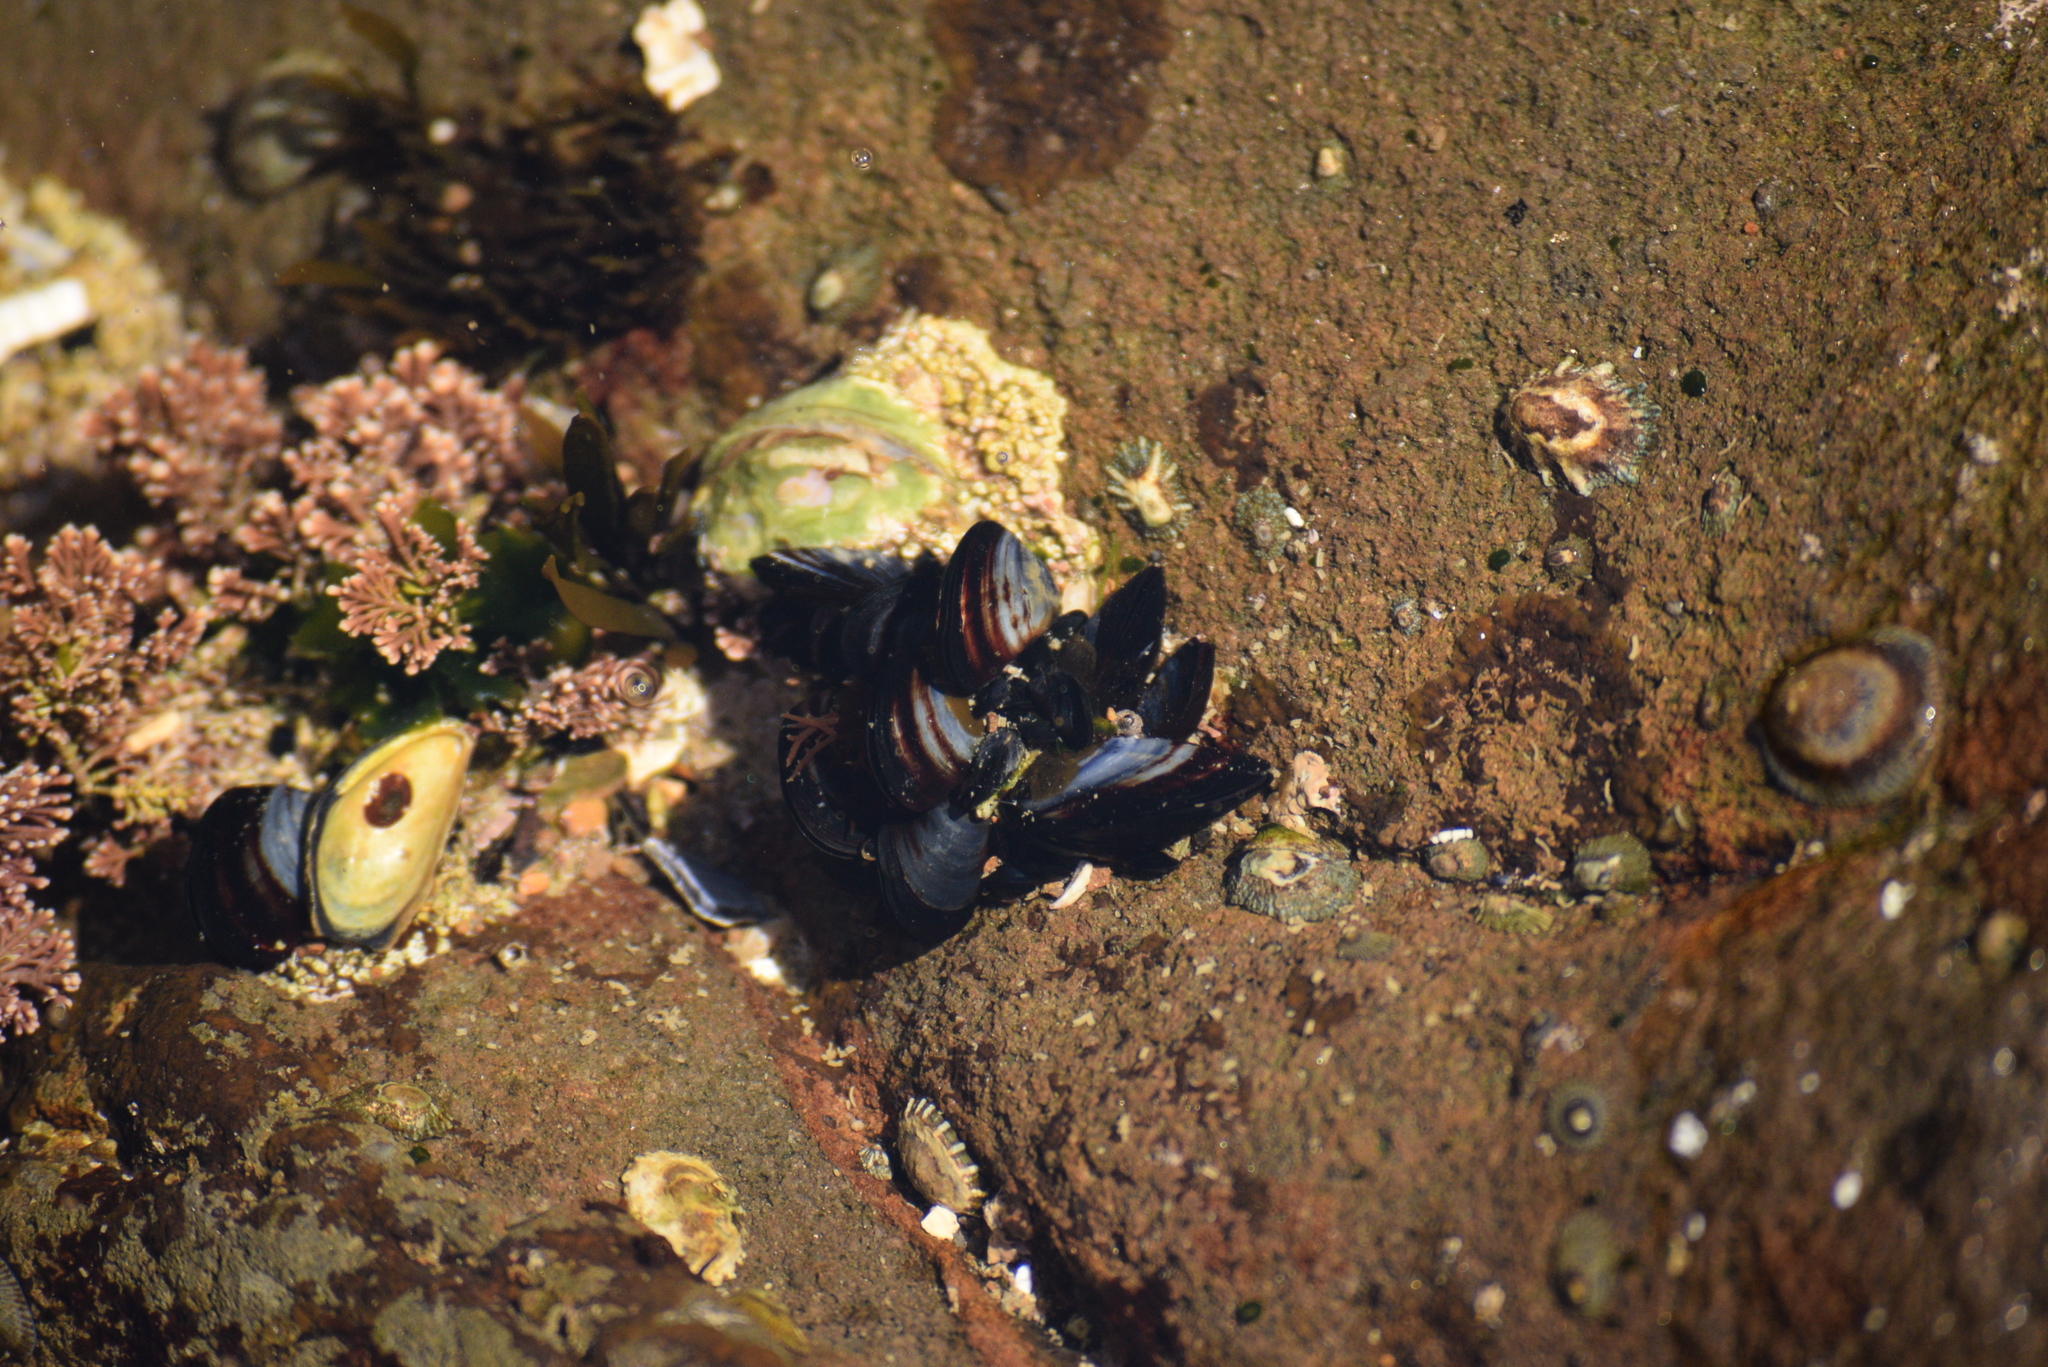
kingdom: Animalia
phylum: Mollusca
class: Bivalvia
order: Mytilida
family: Mytilidae
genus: Mytilus
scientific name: Mytilus
